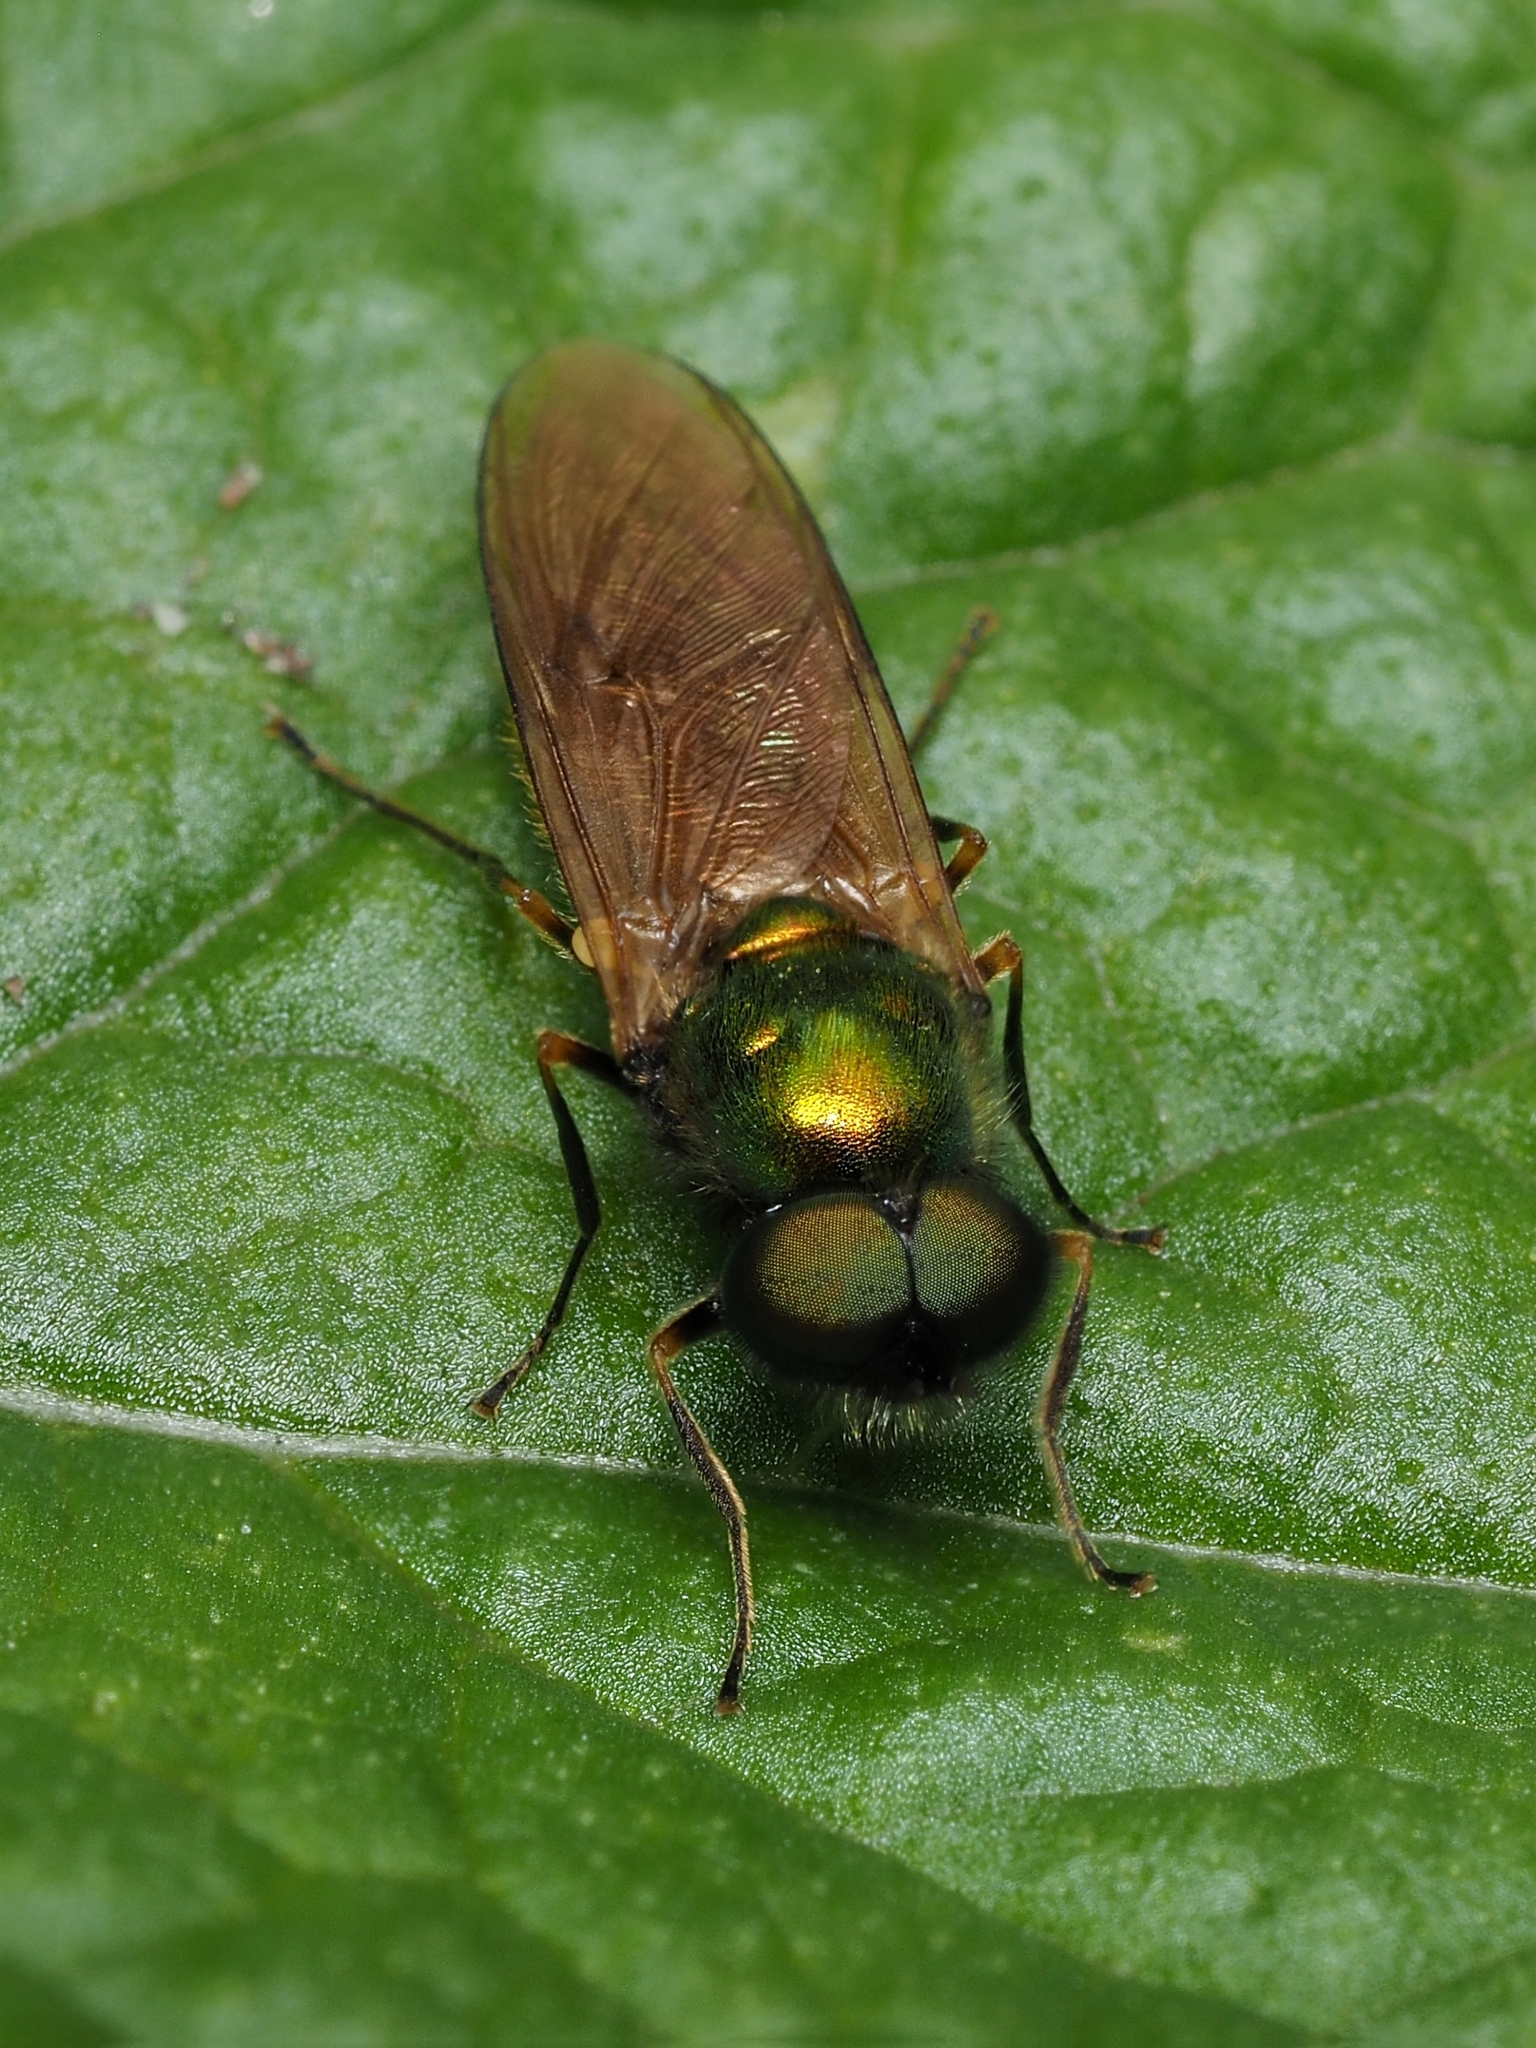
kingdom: Animalia
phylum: Arthropoda
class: Insecta
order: Diptera
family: Stratiomyidae
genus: Chloromyia
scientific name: Chloromyia formosa
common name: Soldier fly
